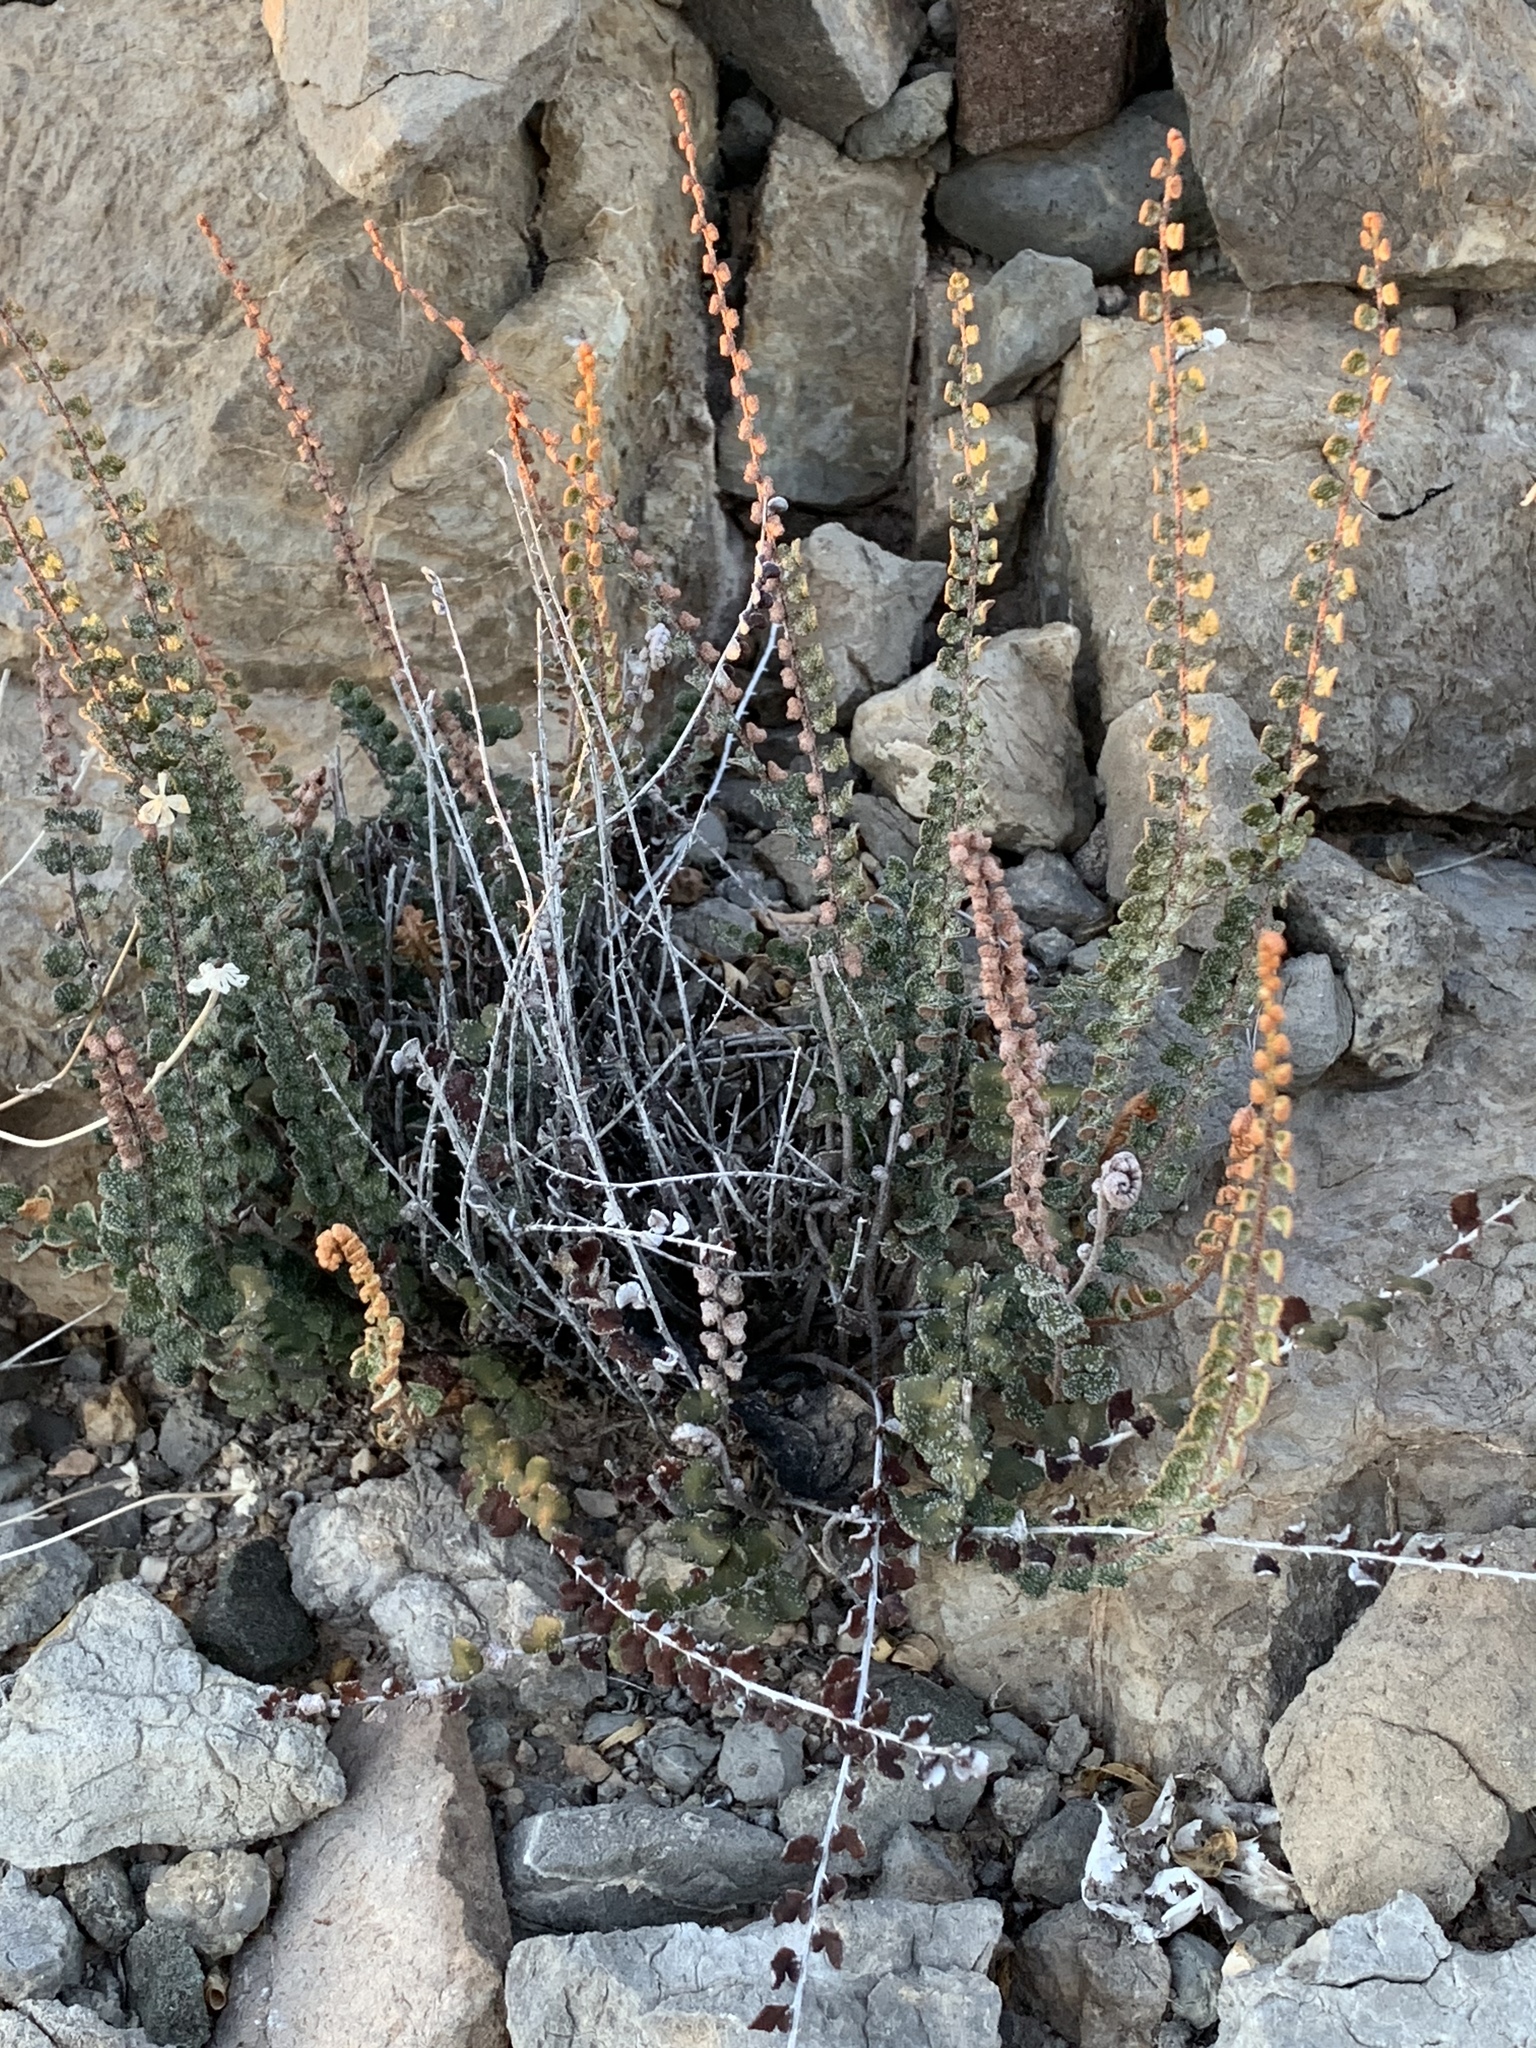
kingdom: Plantae
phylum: Tracheophyta
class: Polypodiopsida
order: Polypodiales
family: Pteridaceae
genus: Astrolepis
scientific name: Astrolepis cochisensis
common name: Scaly cloak fern
